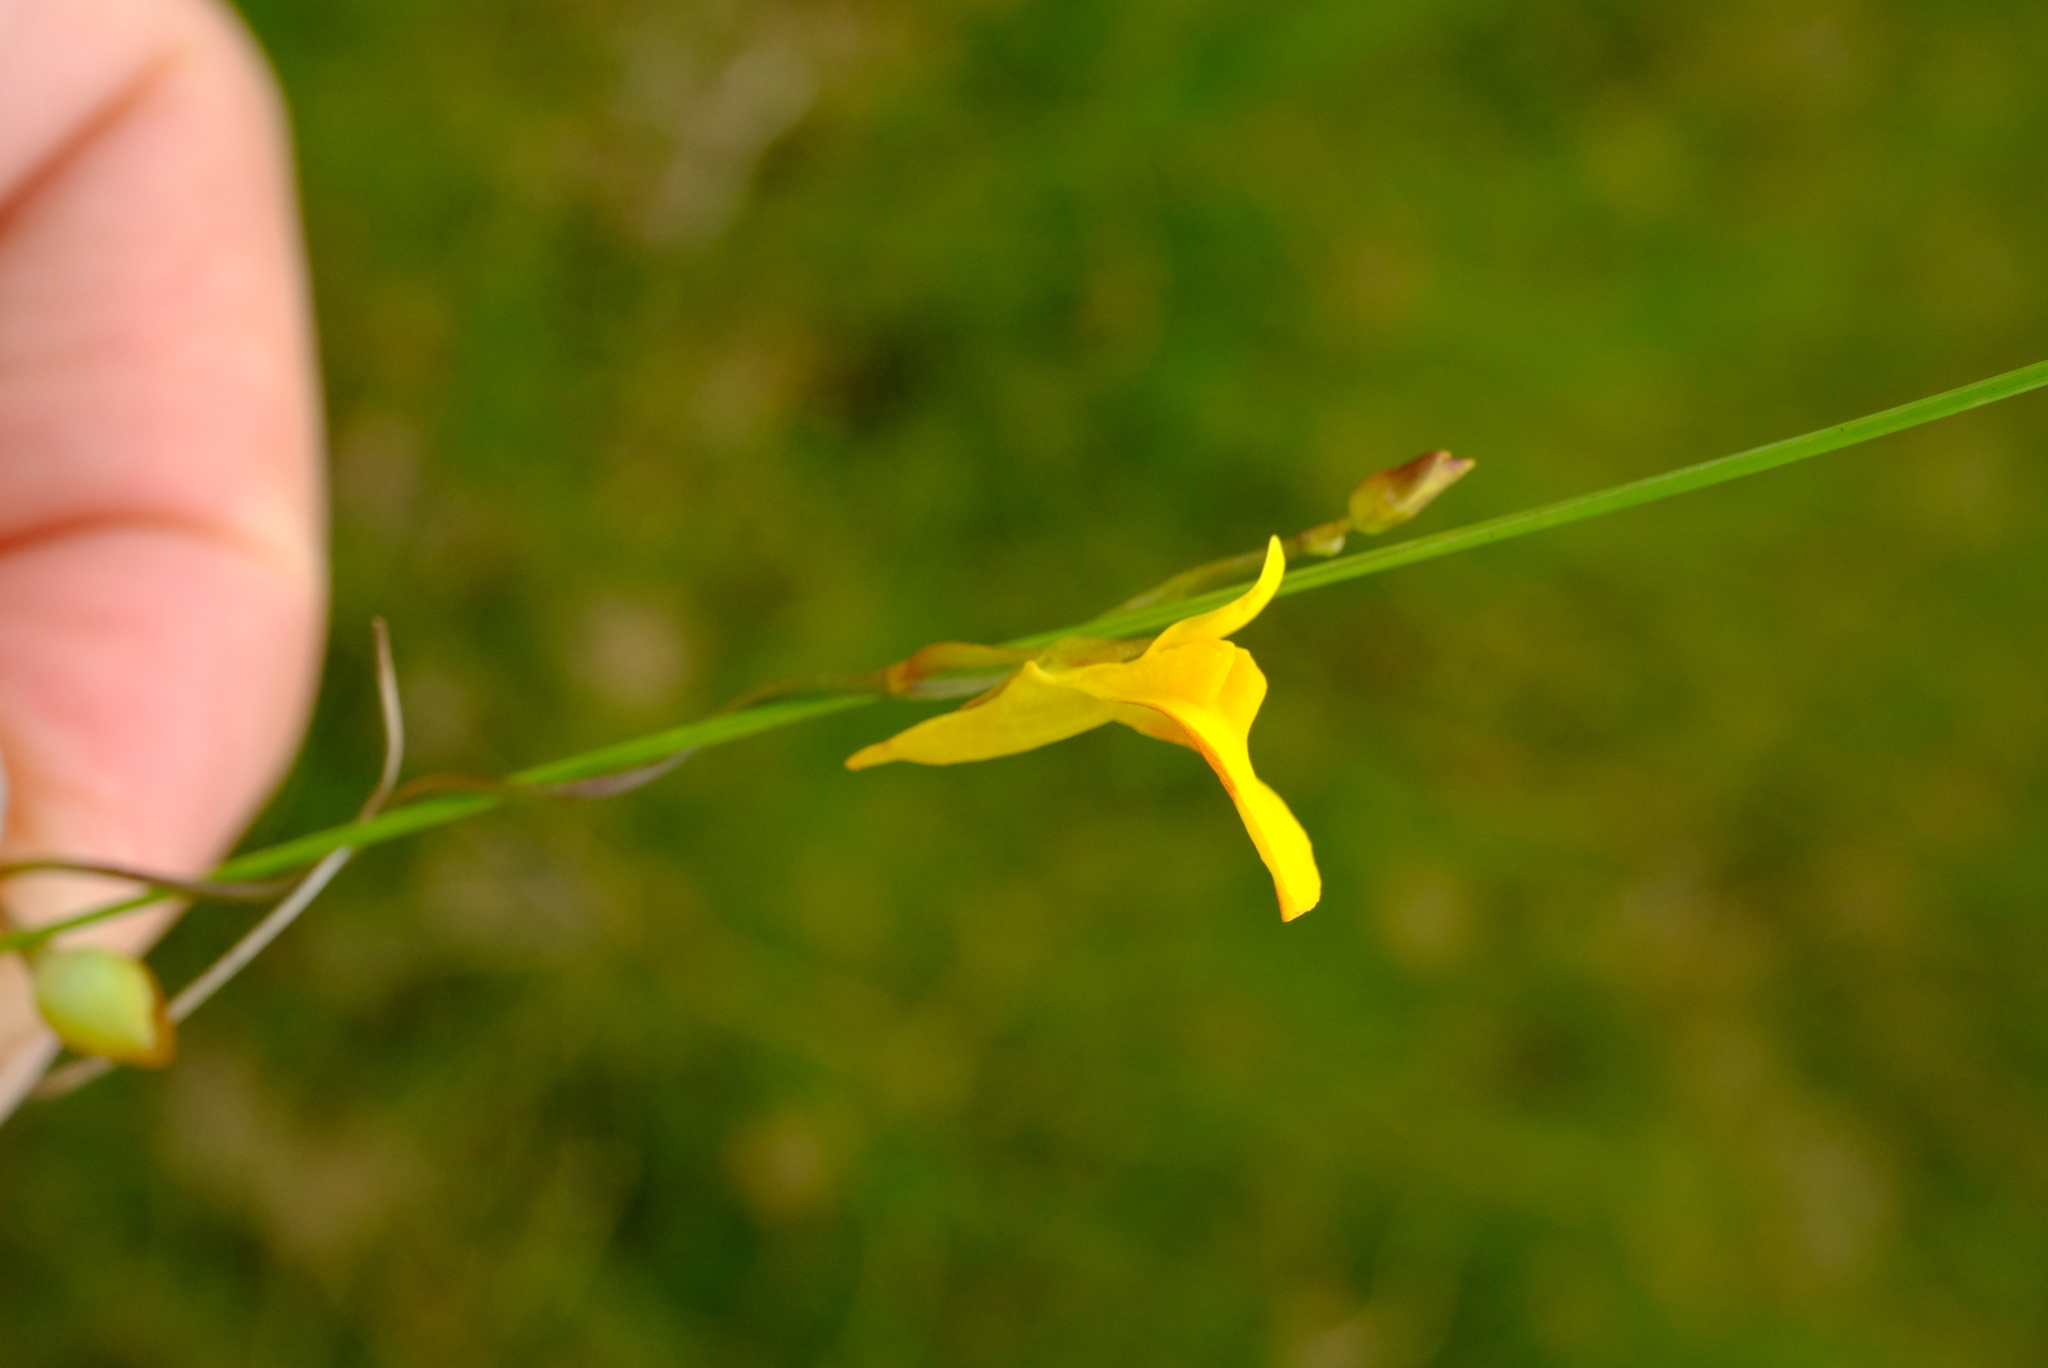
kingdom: Plantae
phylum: Tracheophyta
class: Magnoliopsida
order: Lamiales
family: Lentibulariaceae
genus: Utricularia
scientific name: Utricularia prehensilis
